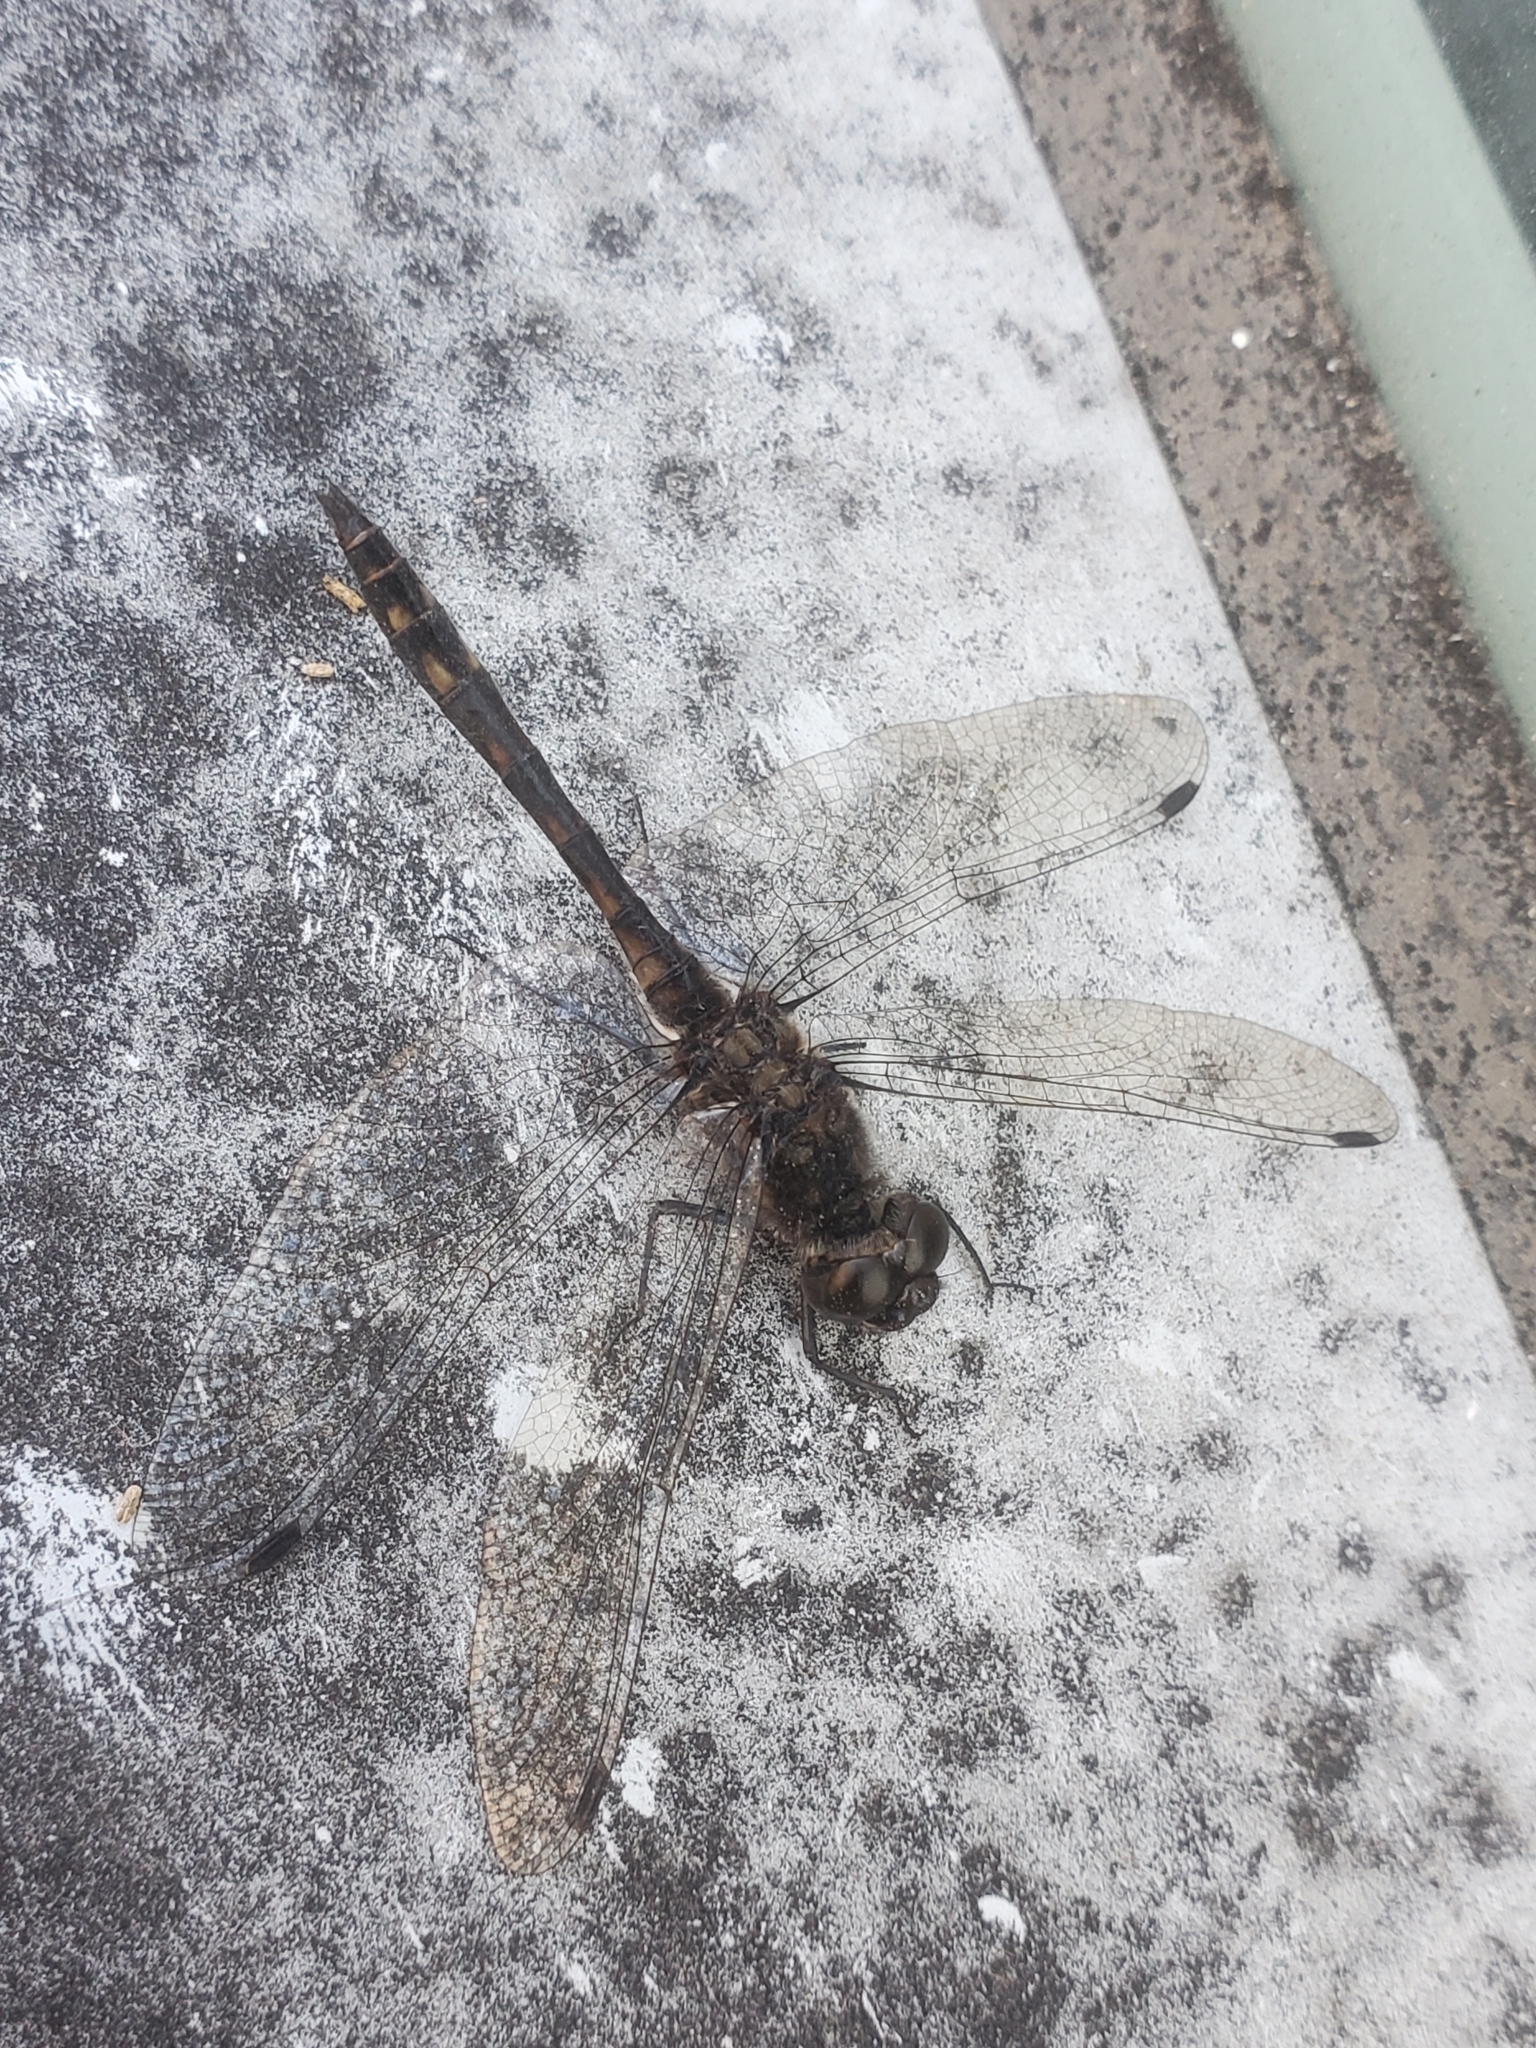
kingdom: Animalia
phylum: Arthropoda
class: Insecta
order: Odonata
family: Libellulidae
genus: Sympetrum
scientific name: Sympetrum danae
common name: Black darter
